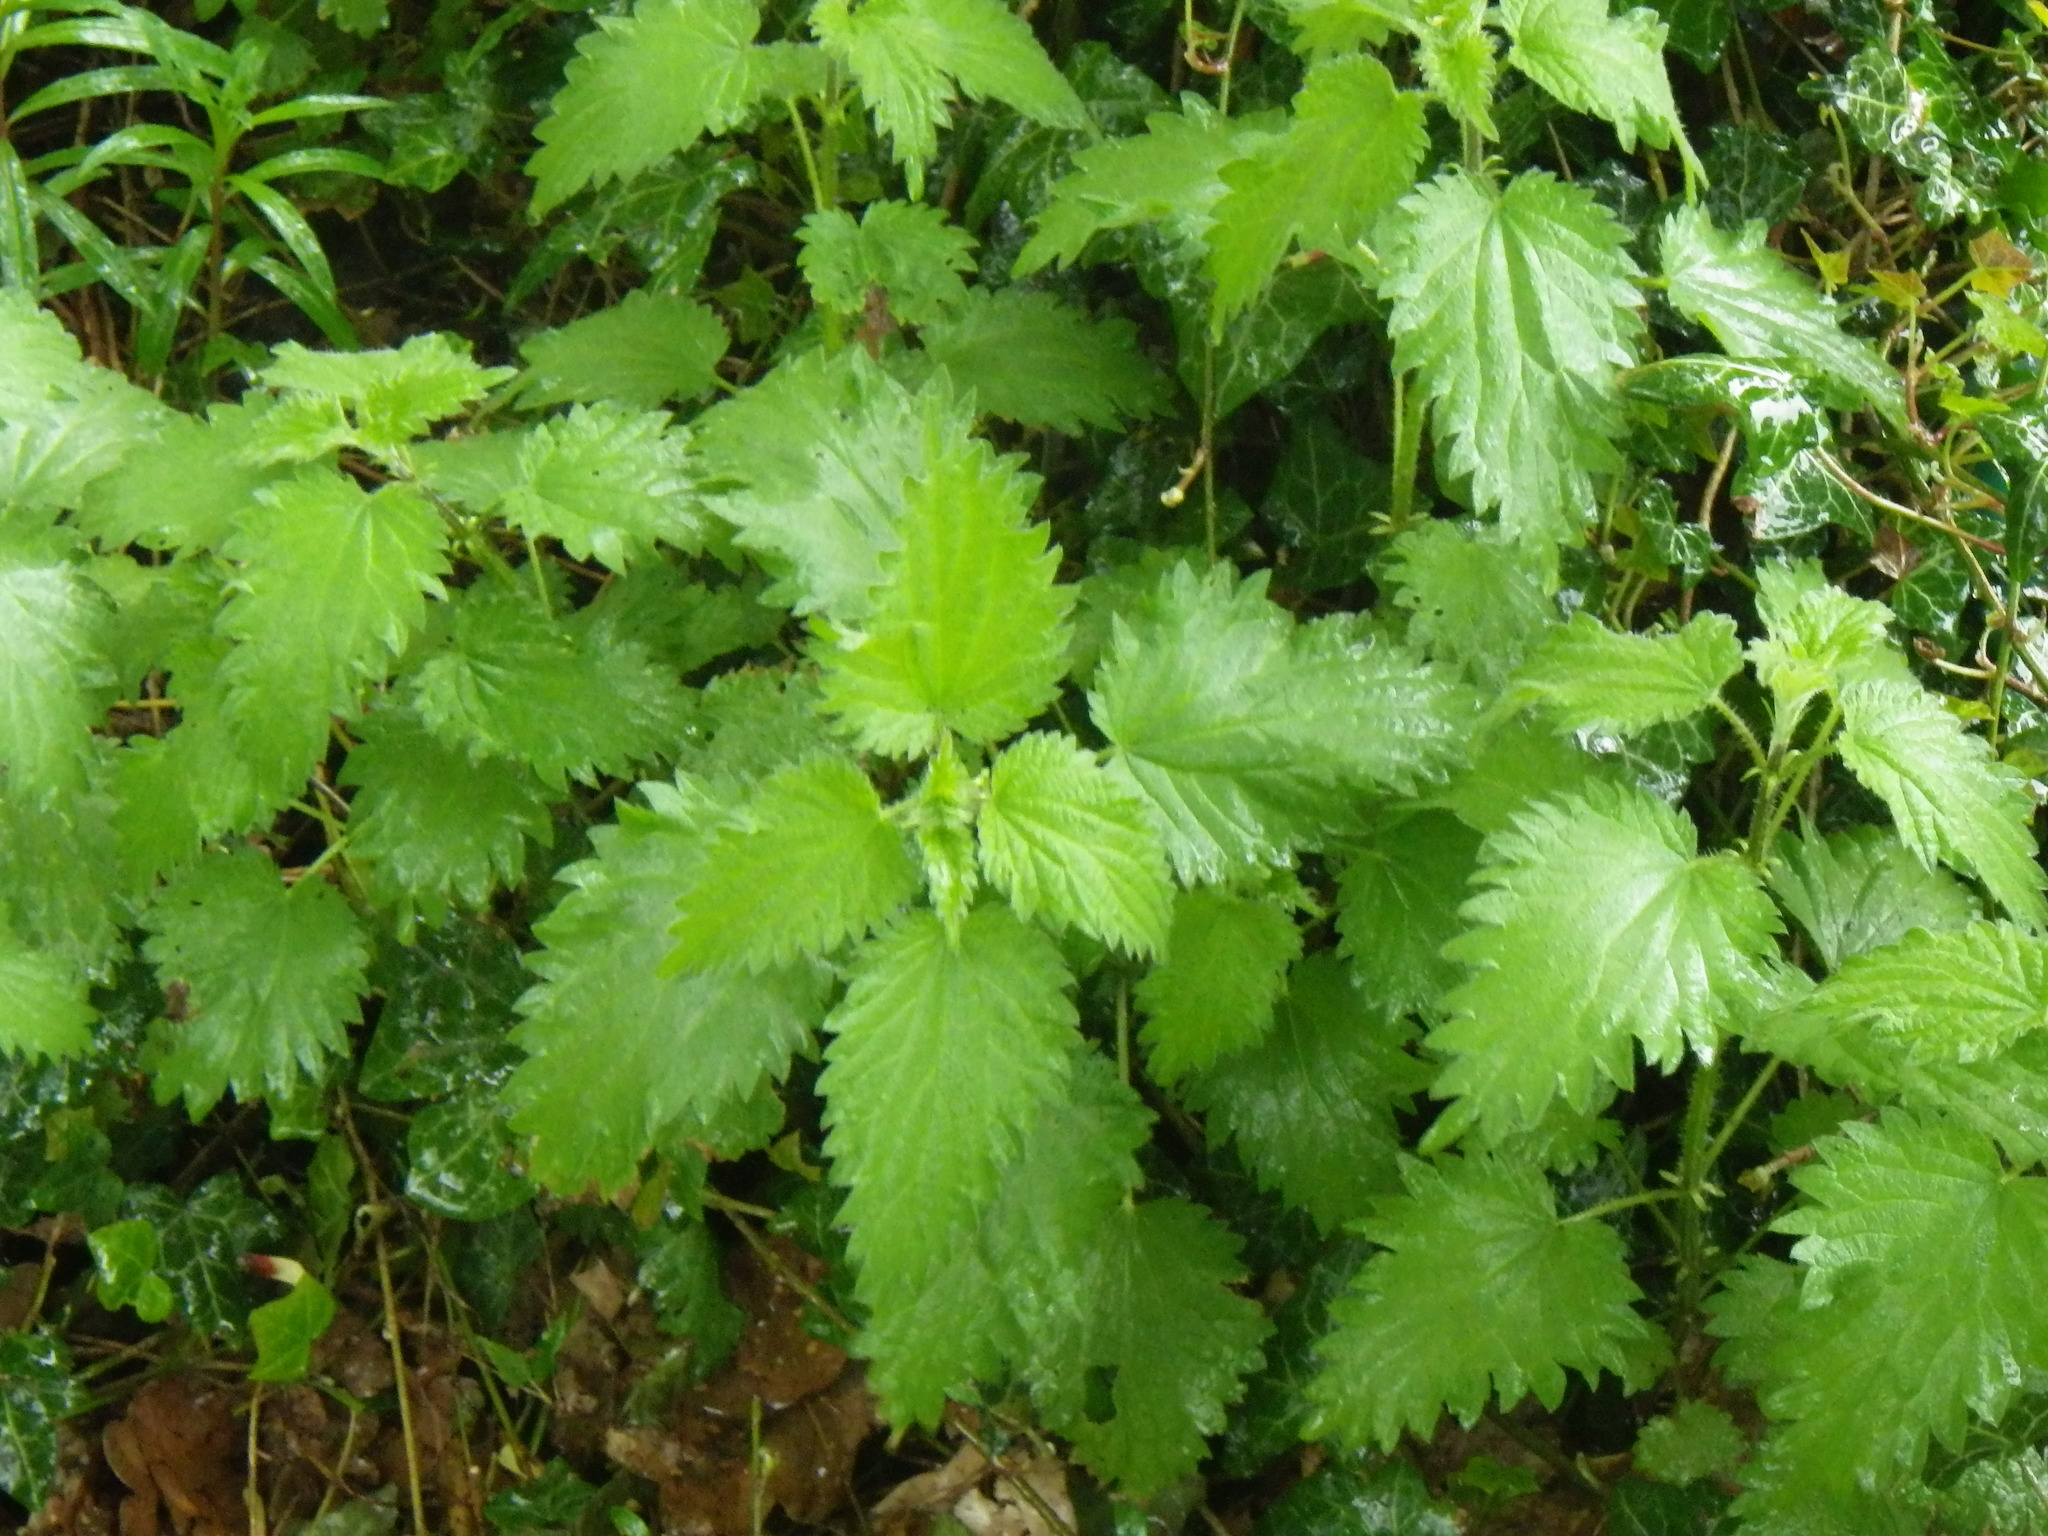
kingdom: Plantae
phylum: Tracheophyta
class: Magnoliopsida
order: Rosales
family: Urticaceae
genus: Urtica
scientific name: Urtica dioica
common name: Common nettle
